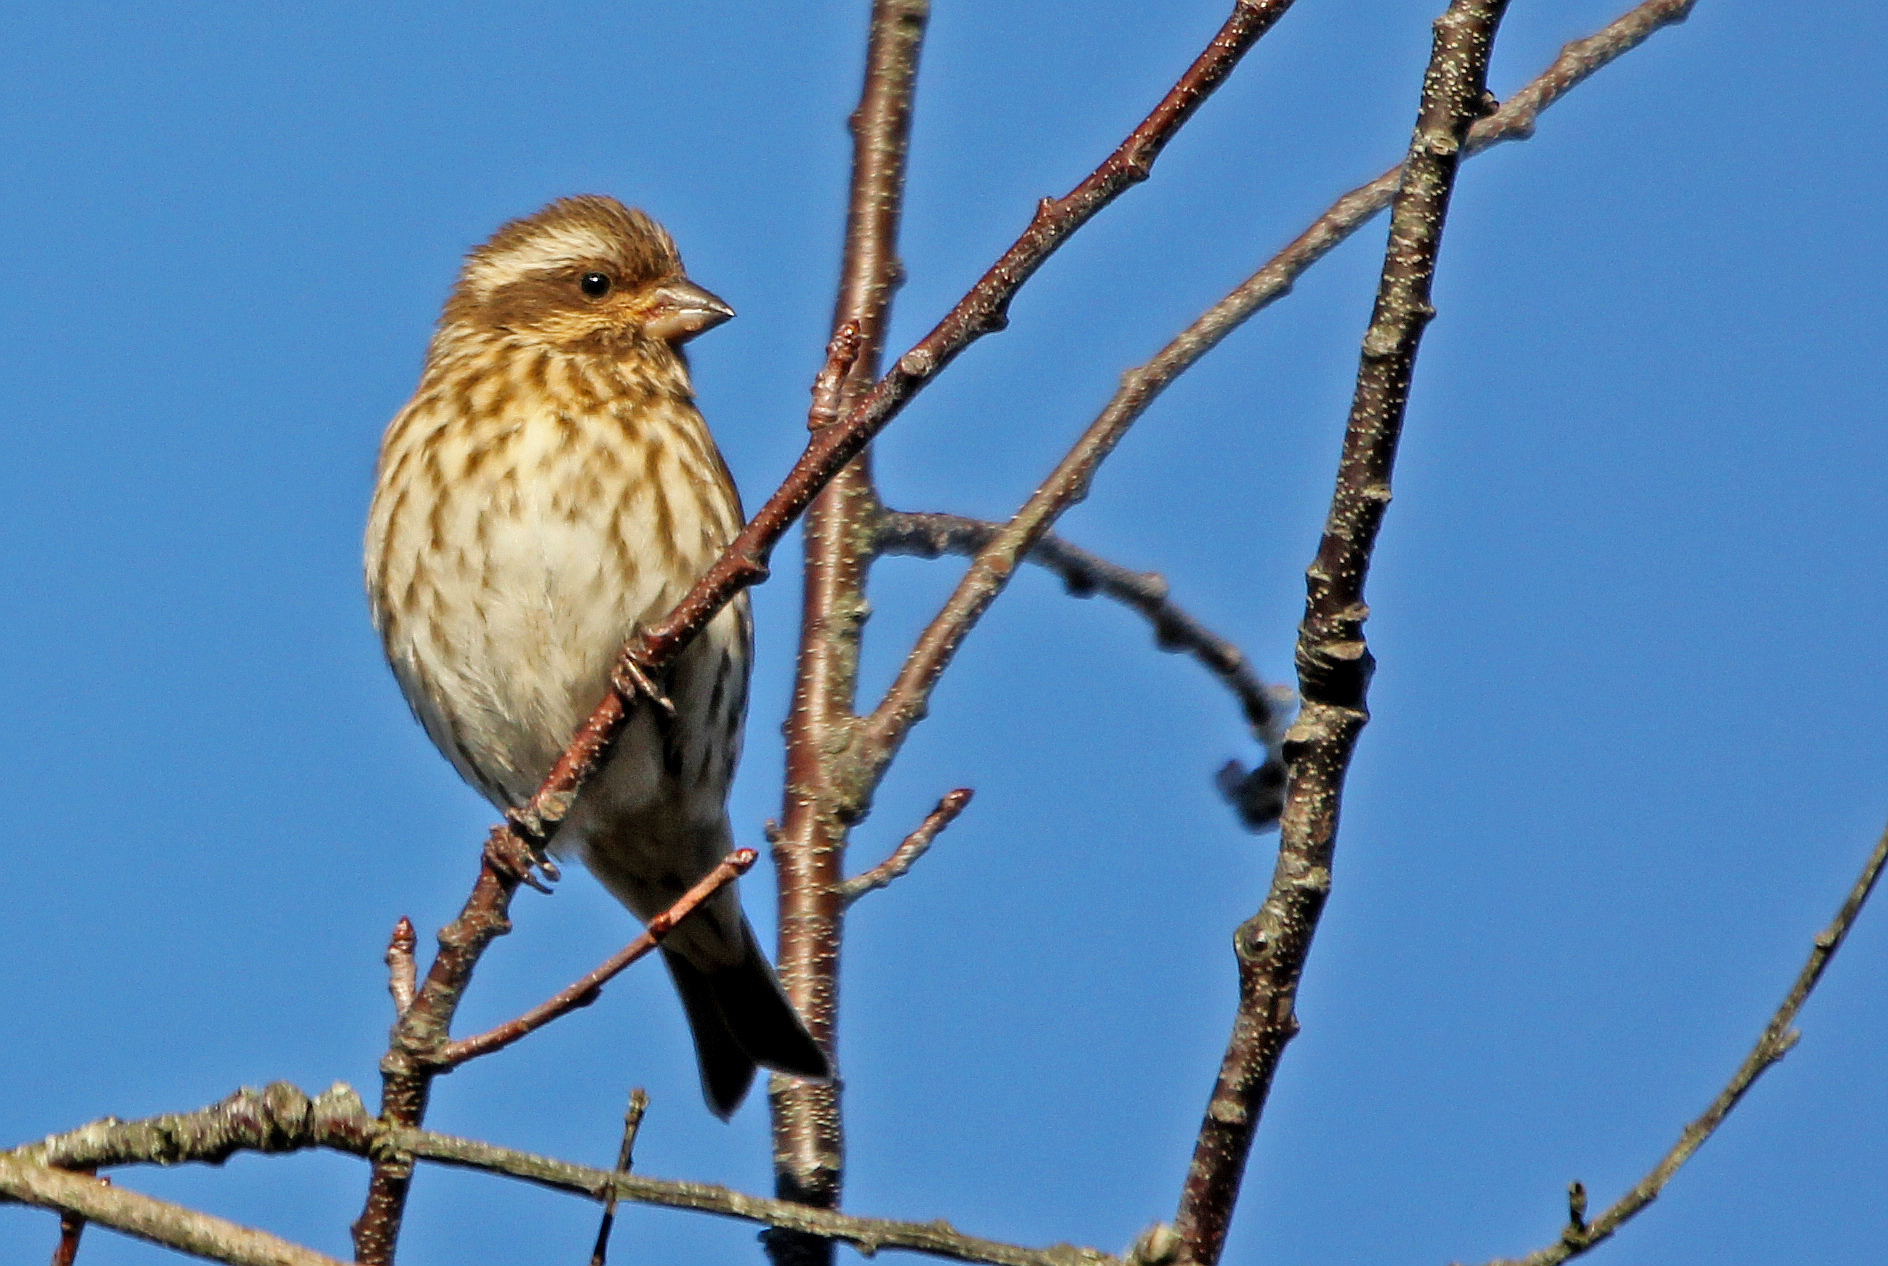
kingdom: Animalia
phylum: Chordata
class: Aves
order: Passeriformes
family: Fringillidae
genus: Haemorhous
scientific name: Haemorhous purpureus
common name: Purple finch
